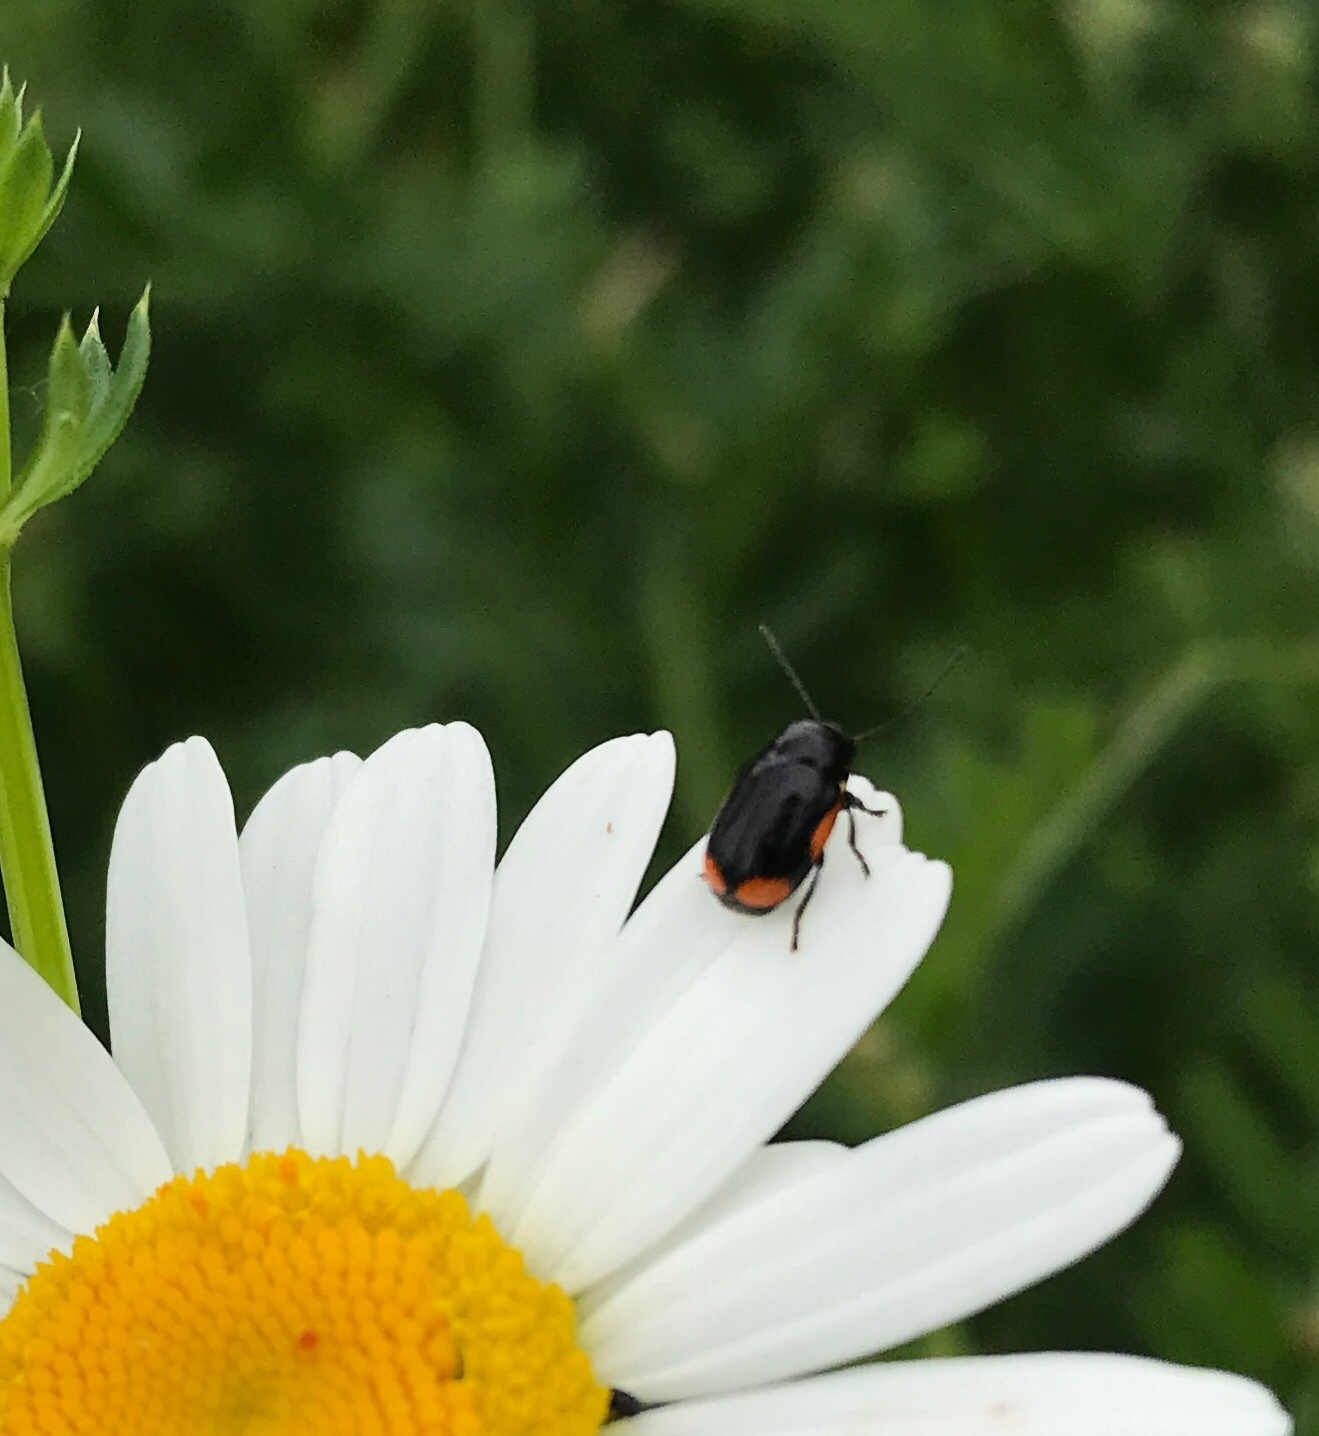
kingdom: Animalia
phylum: Arthropoda
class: Insecta
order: Coleoptera
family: Chrysomelidae
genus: Cryptocephalus
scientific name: Cryptocephalus moraei
